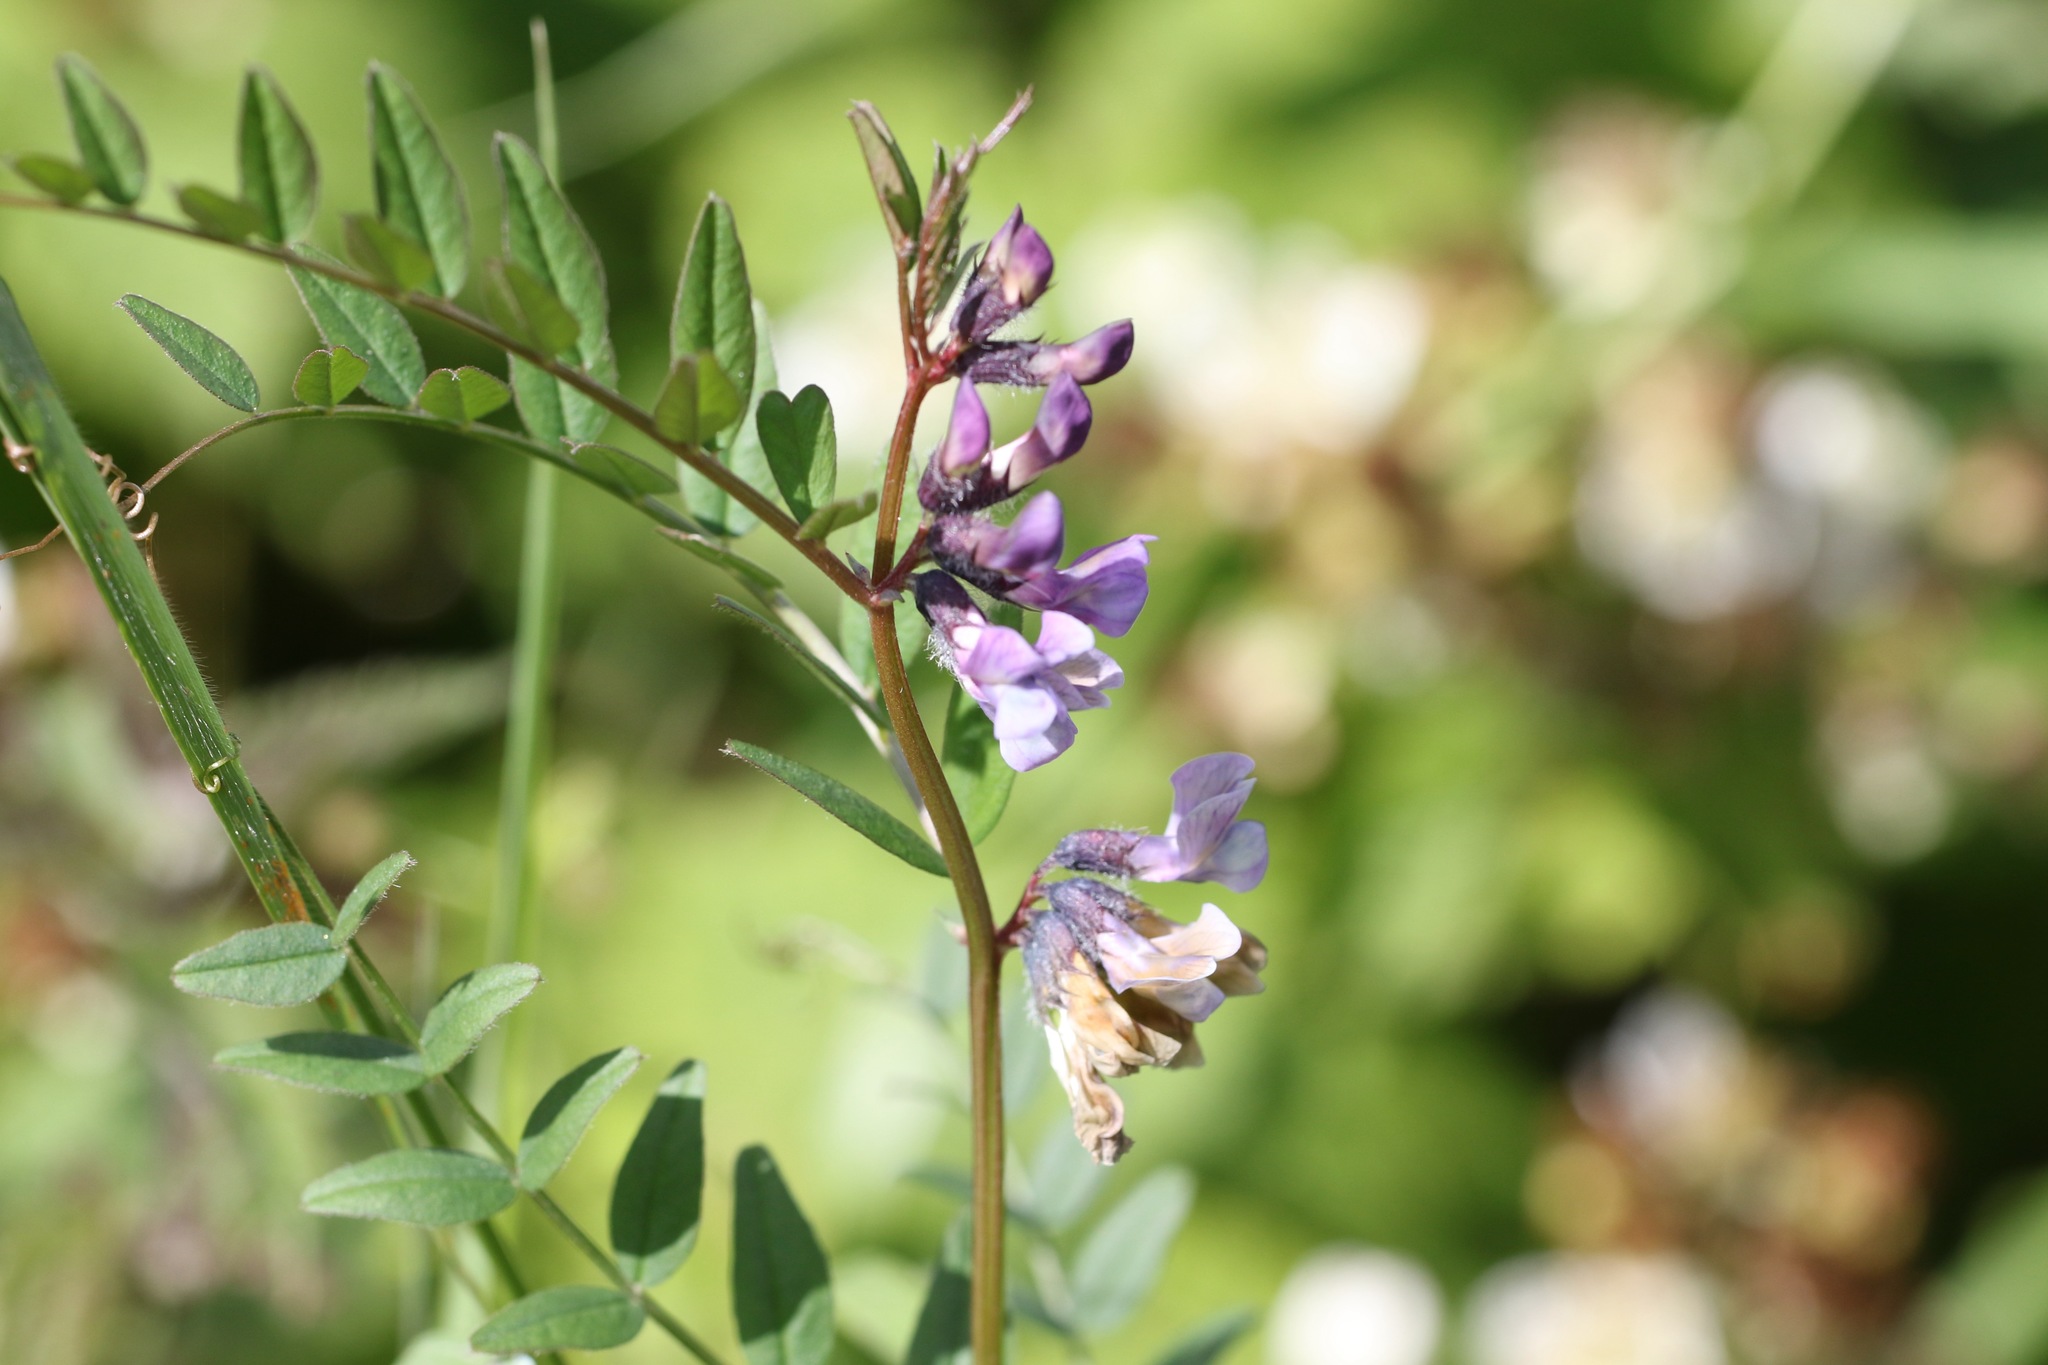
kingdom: Plantae
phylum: Tracheophyta
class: Magnoliopsida
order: Fabales
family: Fabaceae
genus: Vicia
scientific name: Vicia sepium
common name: Bush vetch
